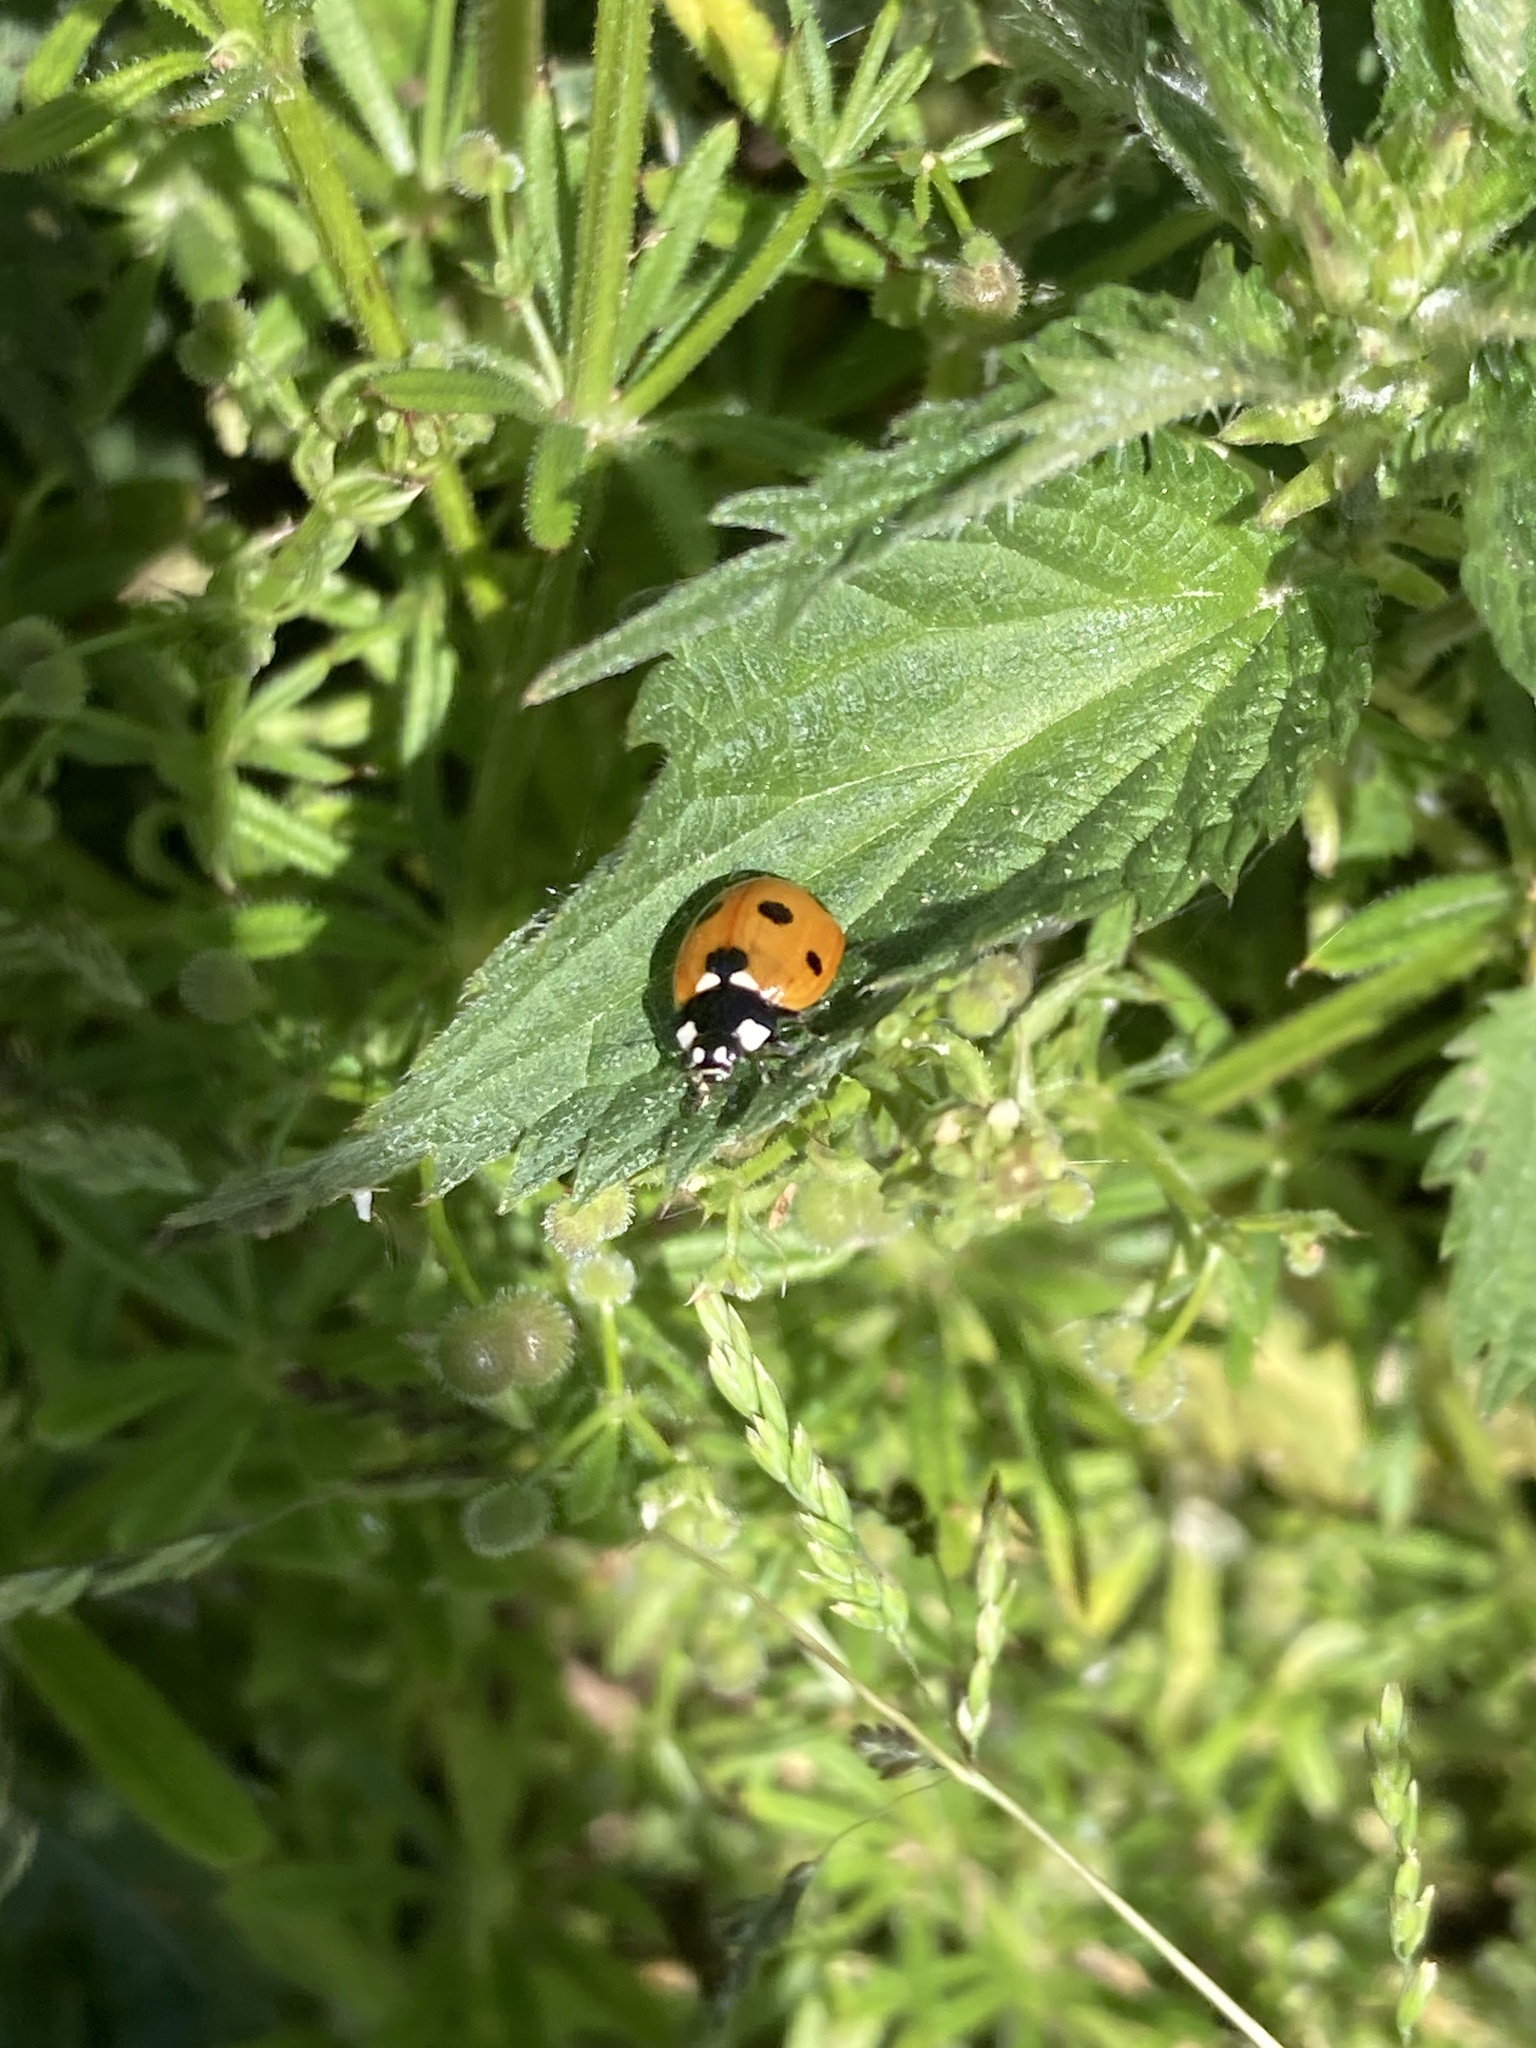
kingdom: Animalia
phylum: Arthropoda
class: Insecta
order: Coleoptera
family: Coccinellidae
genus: Coccinella
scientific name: Coccinella septempunctata
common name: Sevenspotted lady beetle
